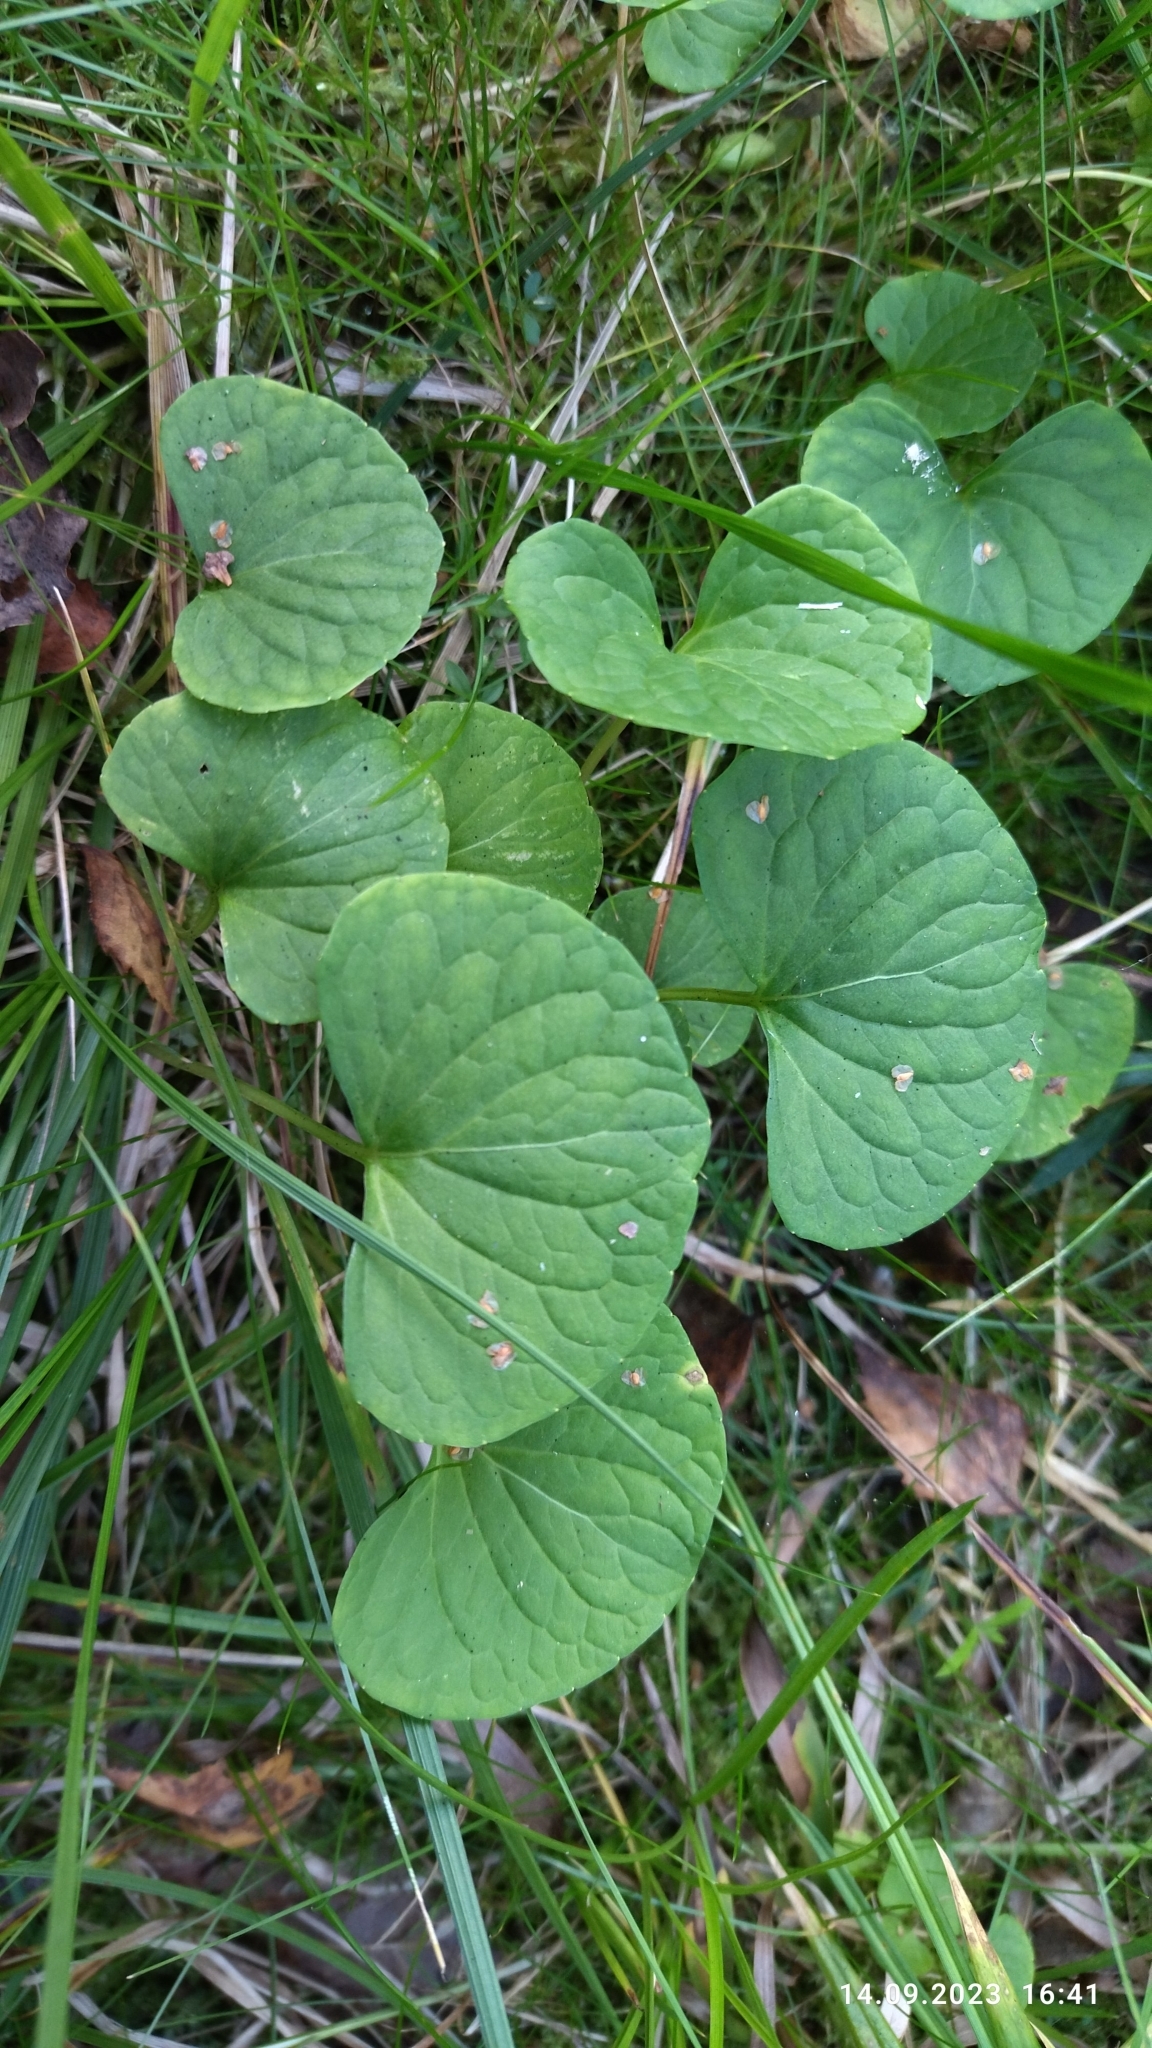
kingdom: Plantae
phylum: Tracheophyta
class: Magnoliopsida
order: Malpighiales
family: Violaceae
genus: Viola
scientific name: Viola palustris
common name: Marsh violet
